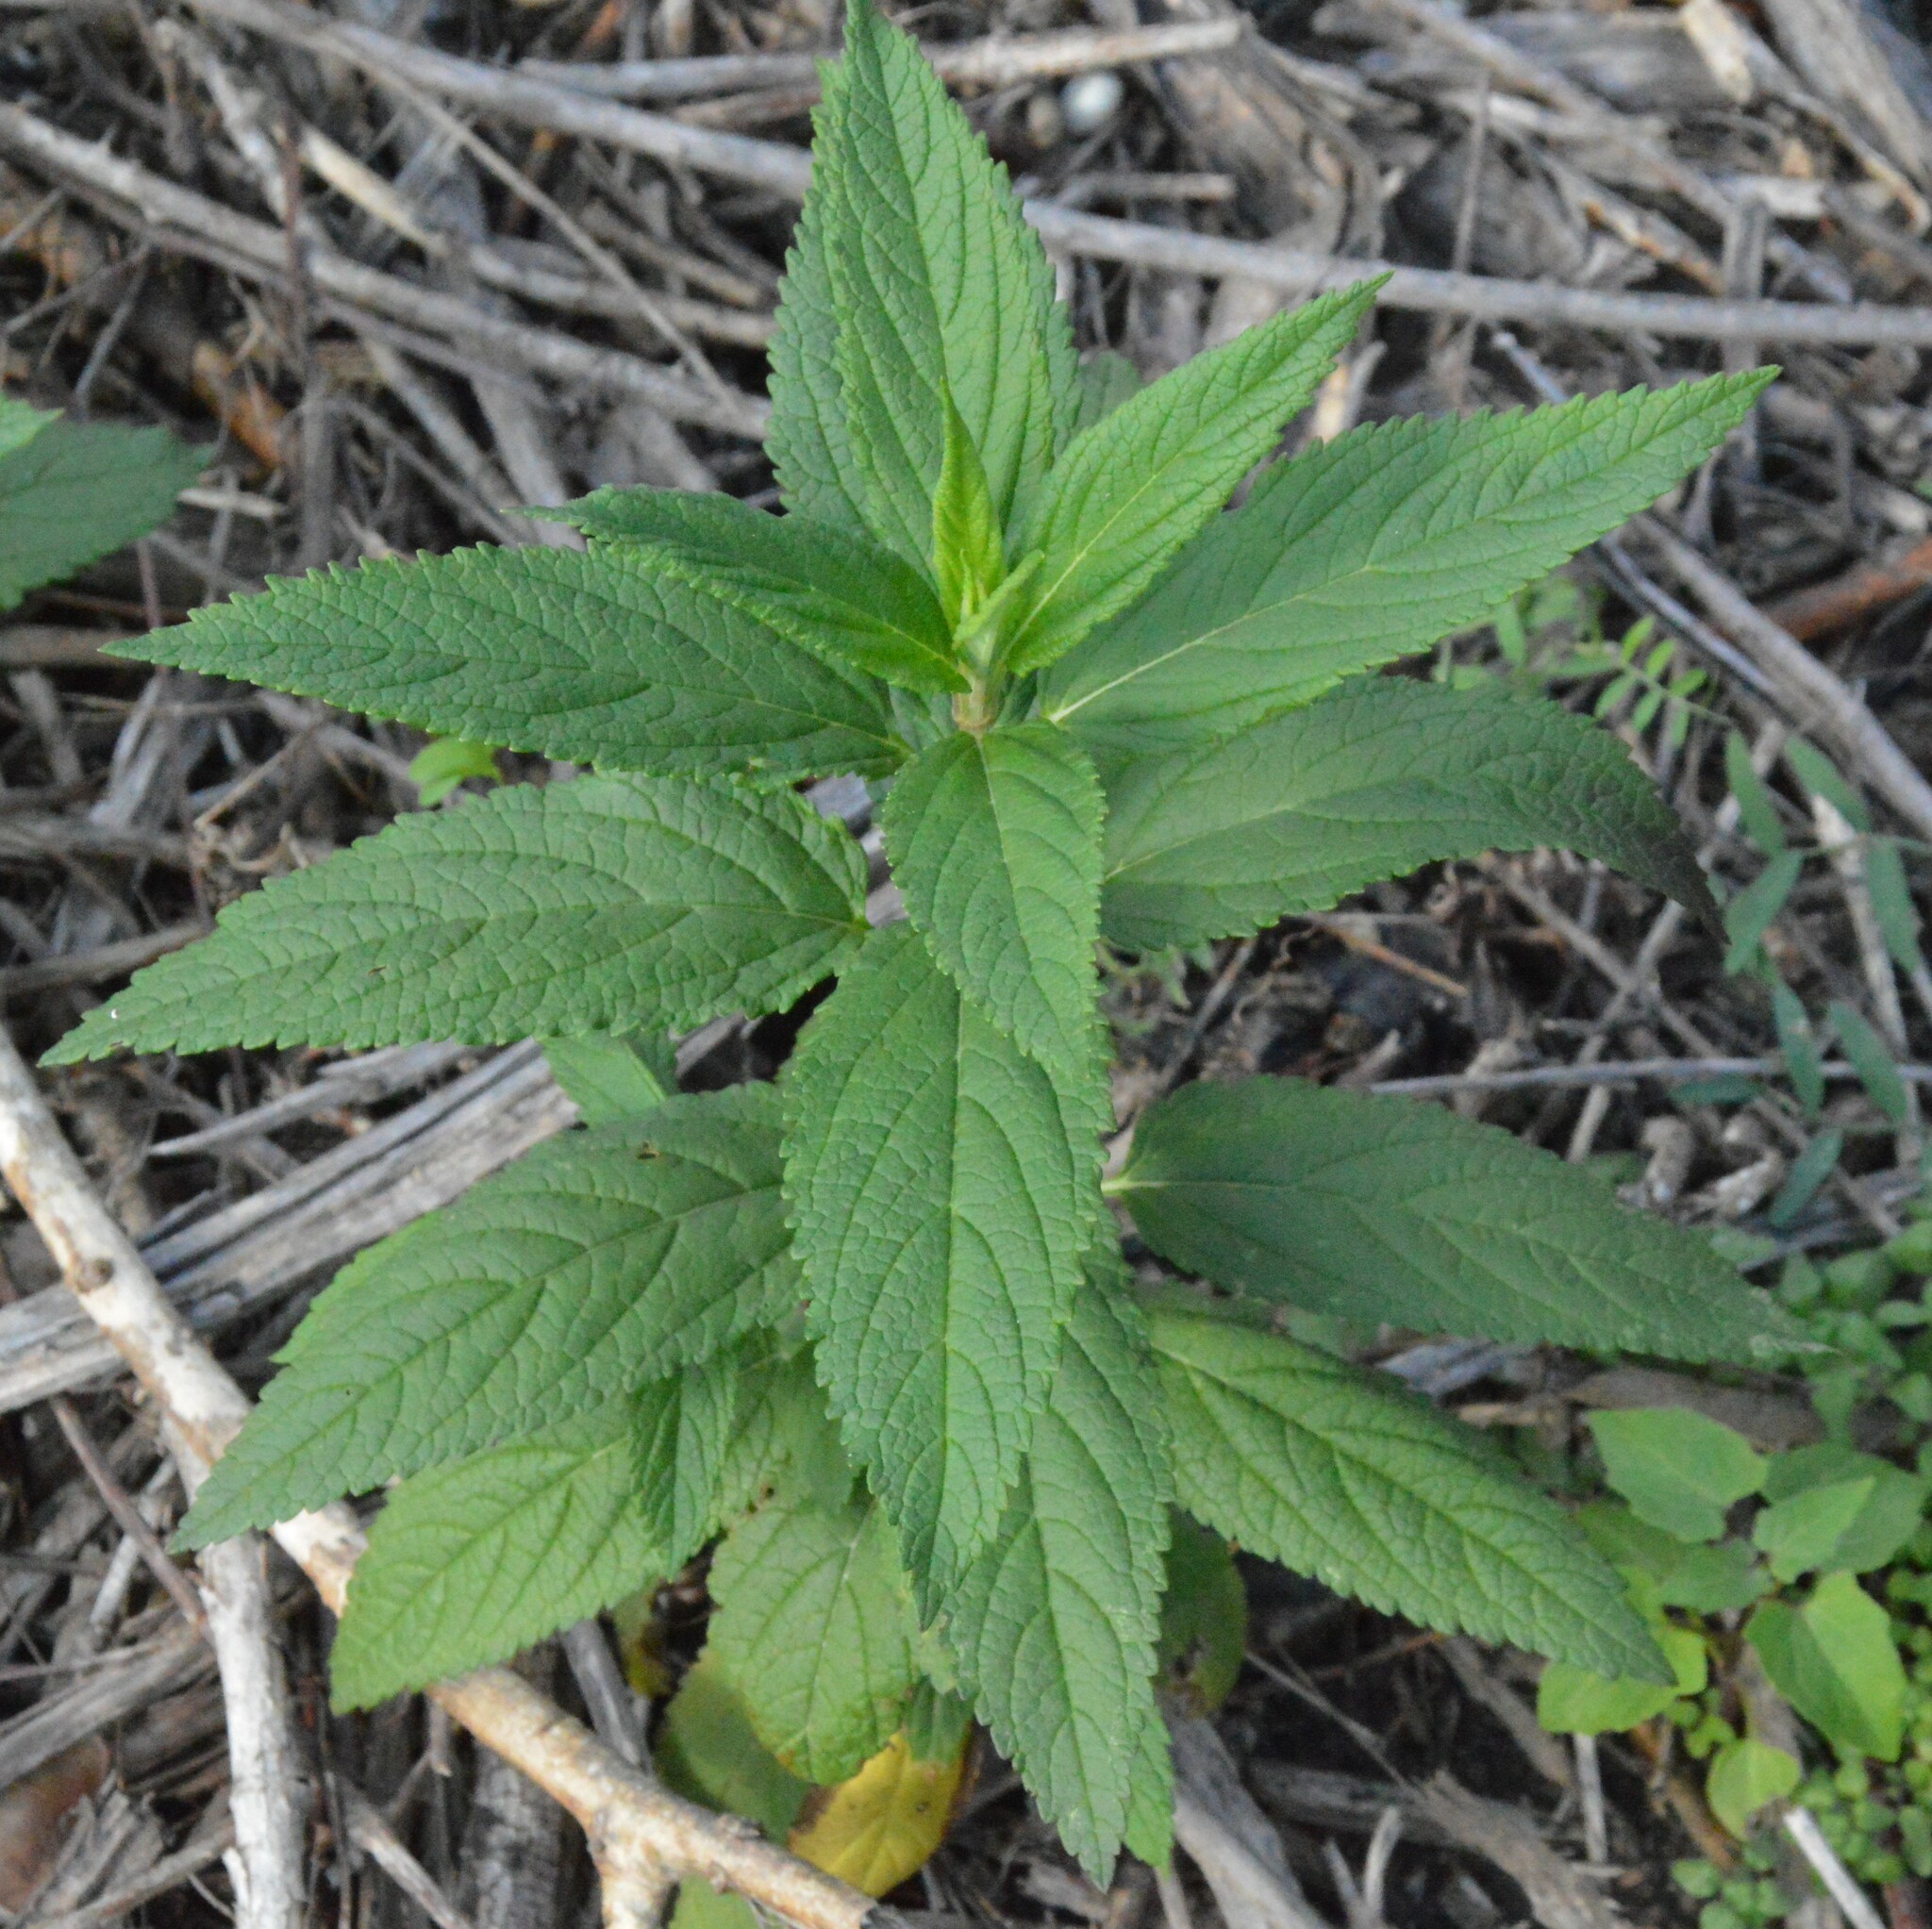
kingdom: Plantae
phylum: Tracheophyta
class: Magnoliopsida
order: Lamiales
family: Lamiaceae
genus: Teucrium
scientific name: Teucrium canadense
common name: American germander
